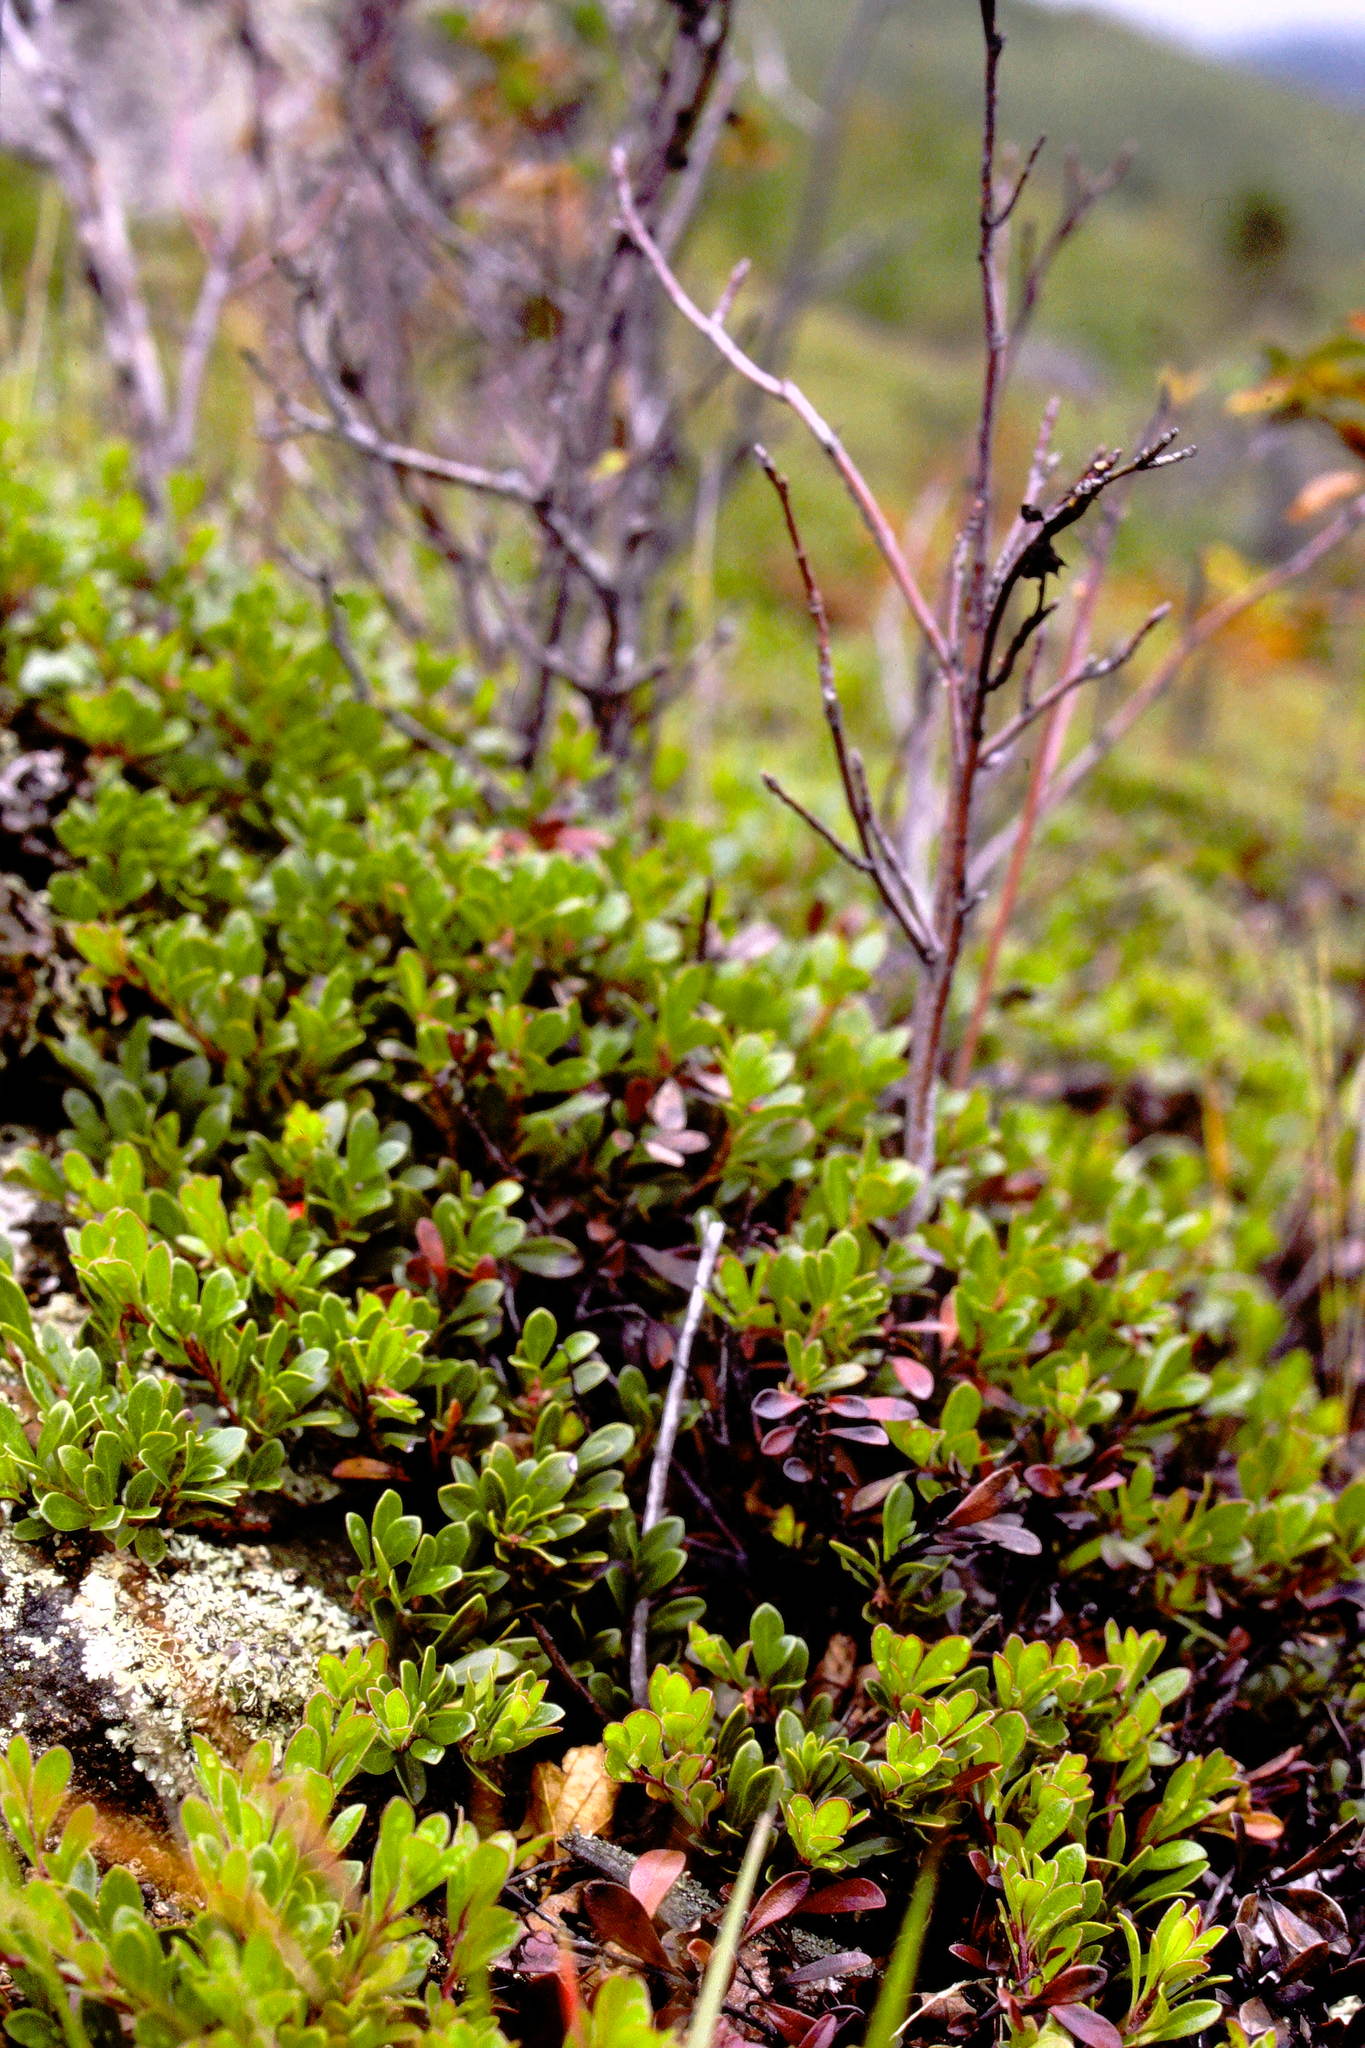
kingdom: Plantae
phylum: Tracheophyta
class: Magnoliopsida
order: Ericales
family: Ericaceae
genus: Arctostaphylos
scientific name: Arctostaphylos uva-ursi
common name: Bearberry
